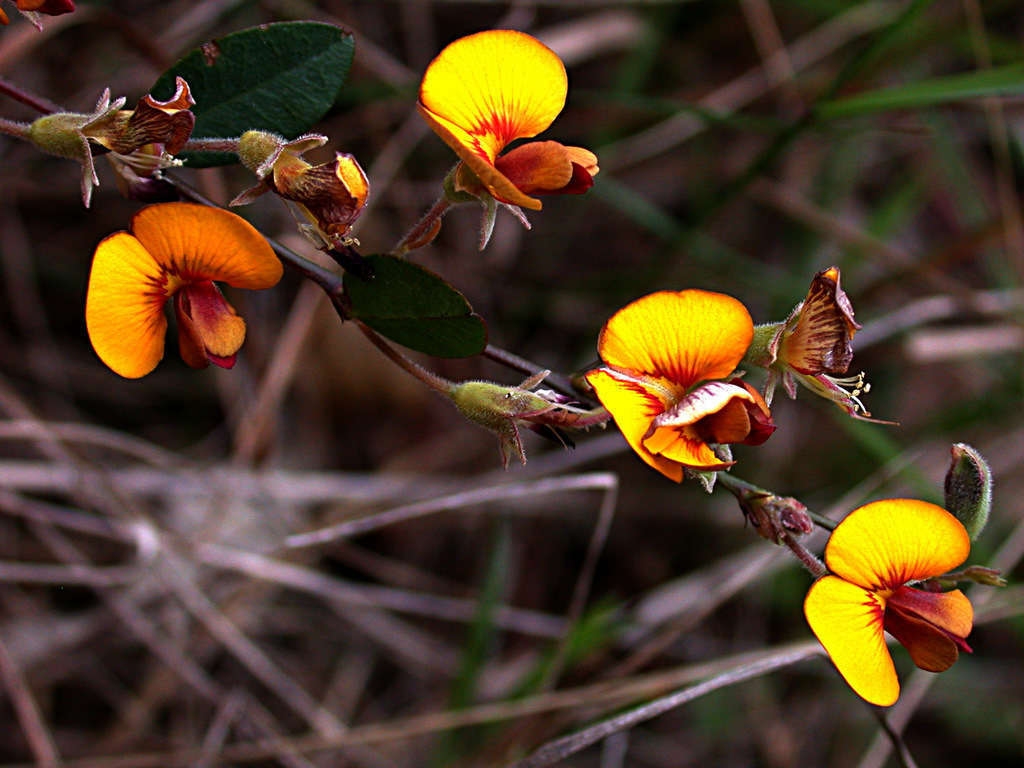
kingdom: Plantae
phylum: Tracheophyta
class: Magnoliopsida
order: Fabales
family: Fabaceae
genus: Bossiaea
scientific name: Bossiaea prostrata
